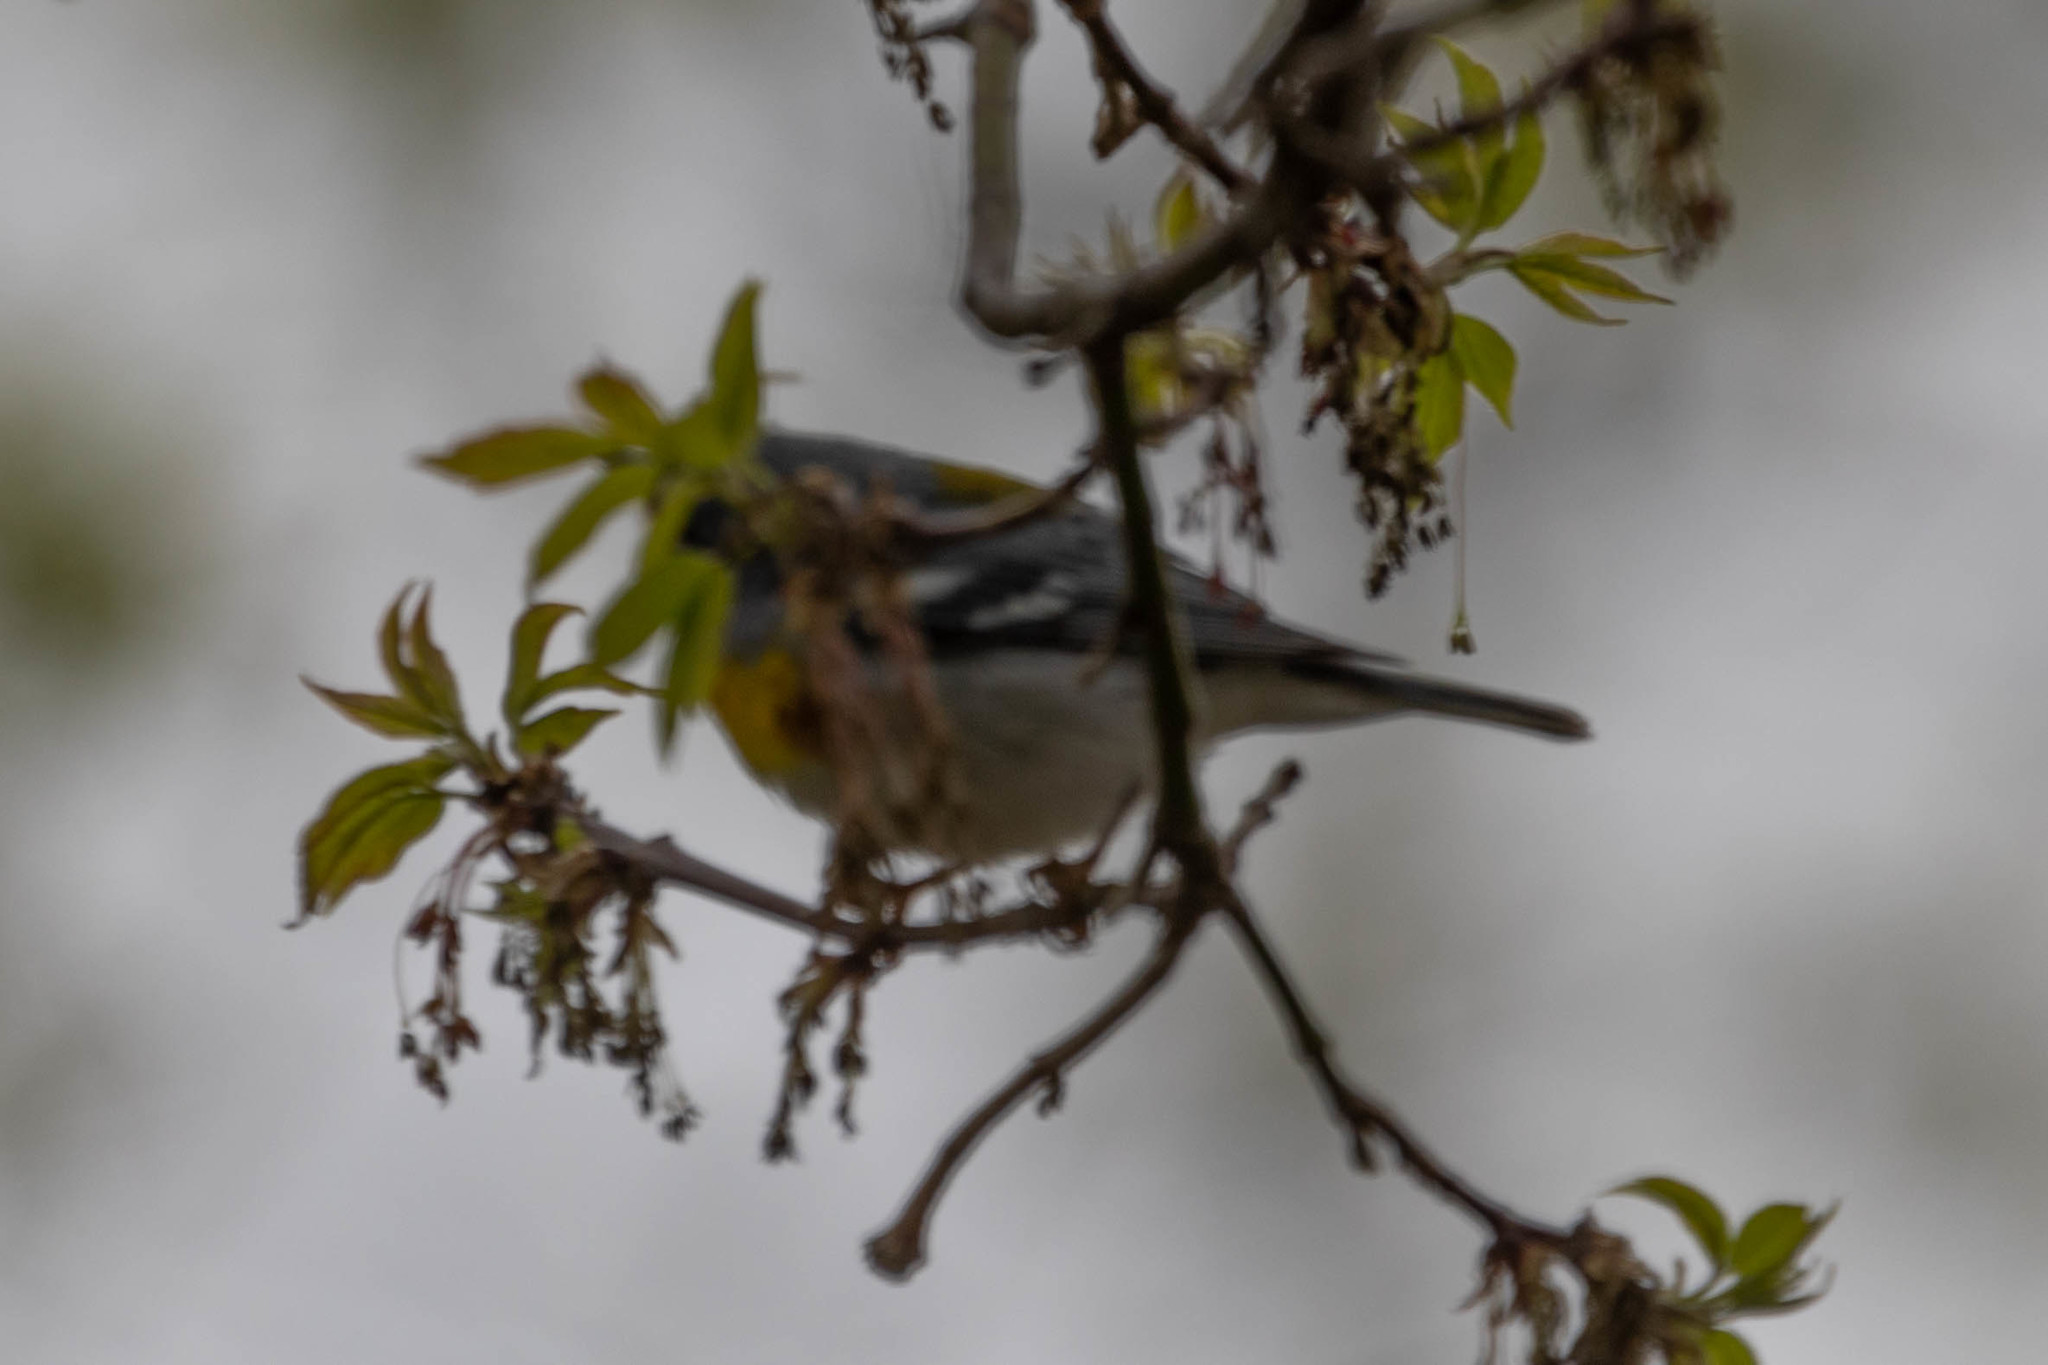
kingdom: Animalia
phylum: Chordata
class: Aves
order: Passeriformes
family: Parulidae
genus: Setophaga
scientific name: Setophaga americana
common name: Northern parula
